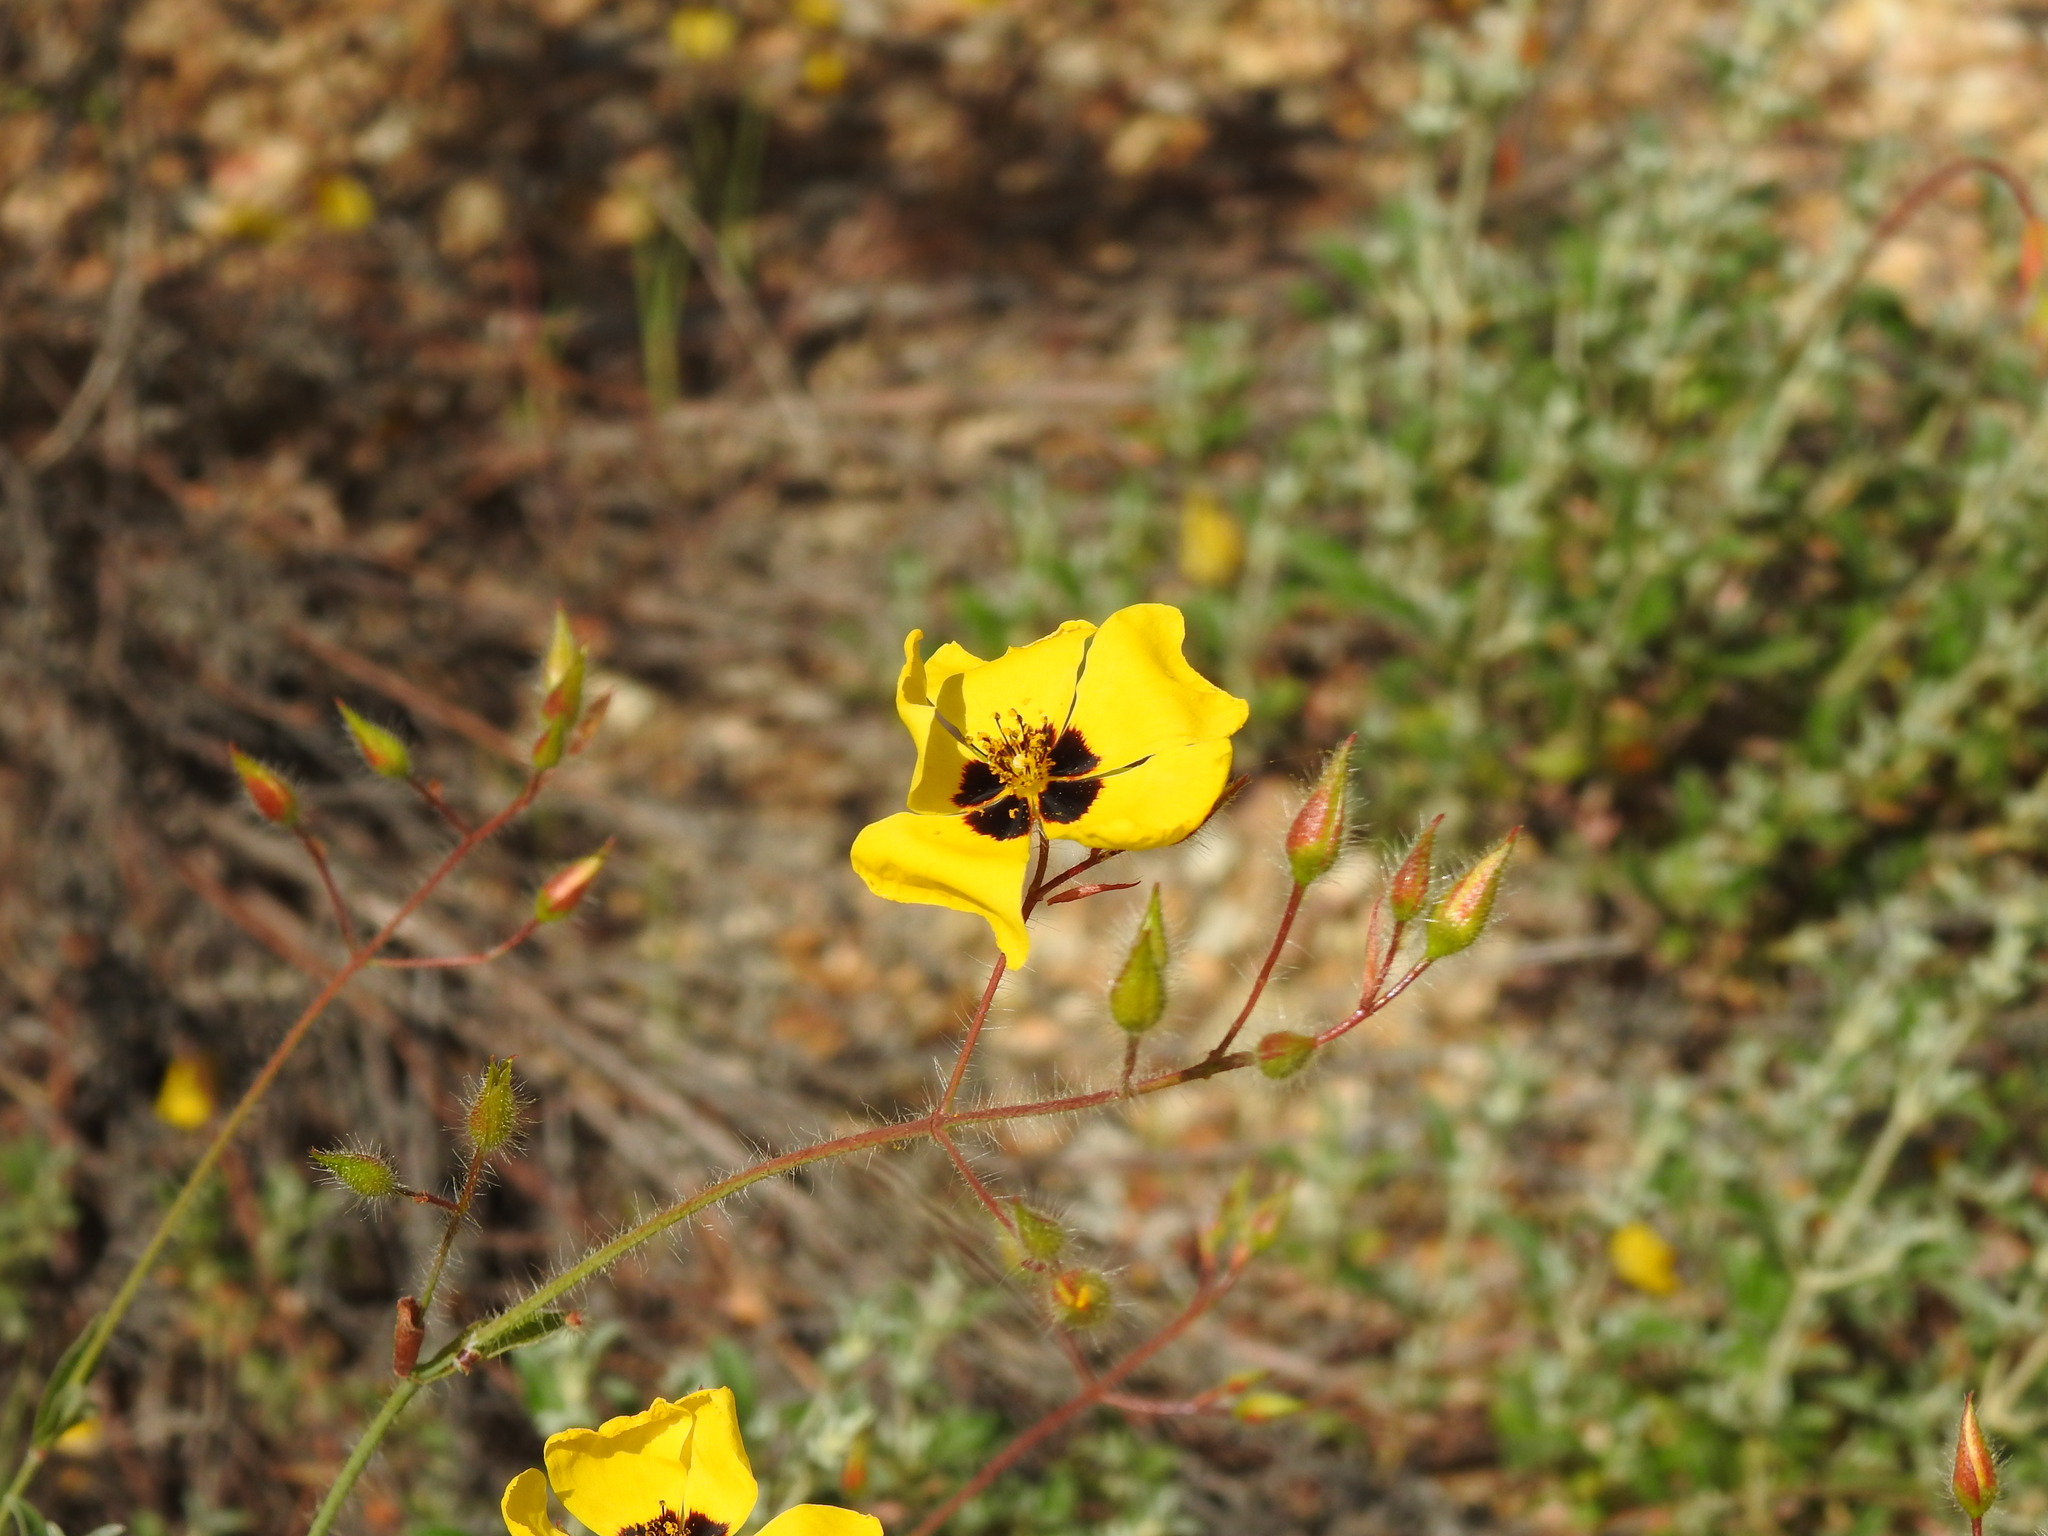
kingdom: Plantae
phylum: Tracheophyta
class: Magnoliopsida
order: Malvales
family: Cistaceae
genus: Cistus
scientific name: Cistus ocymoides
